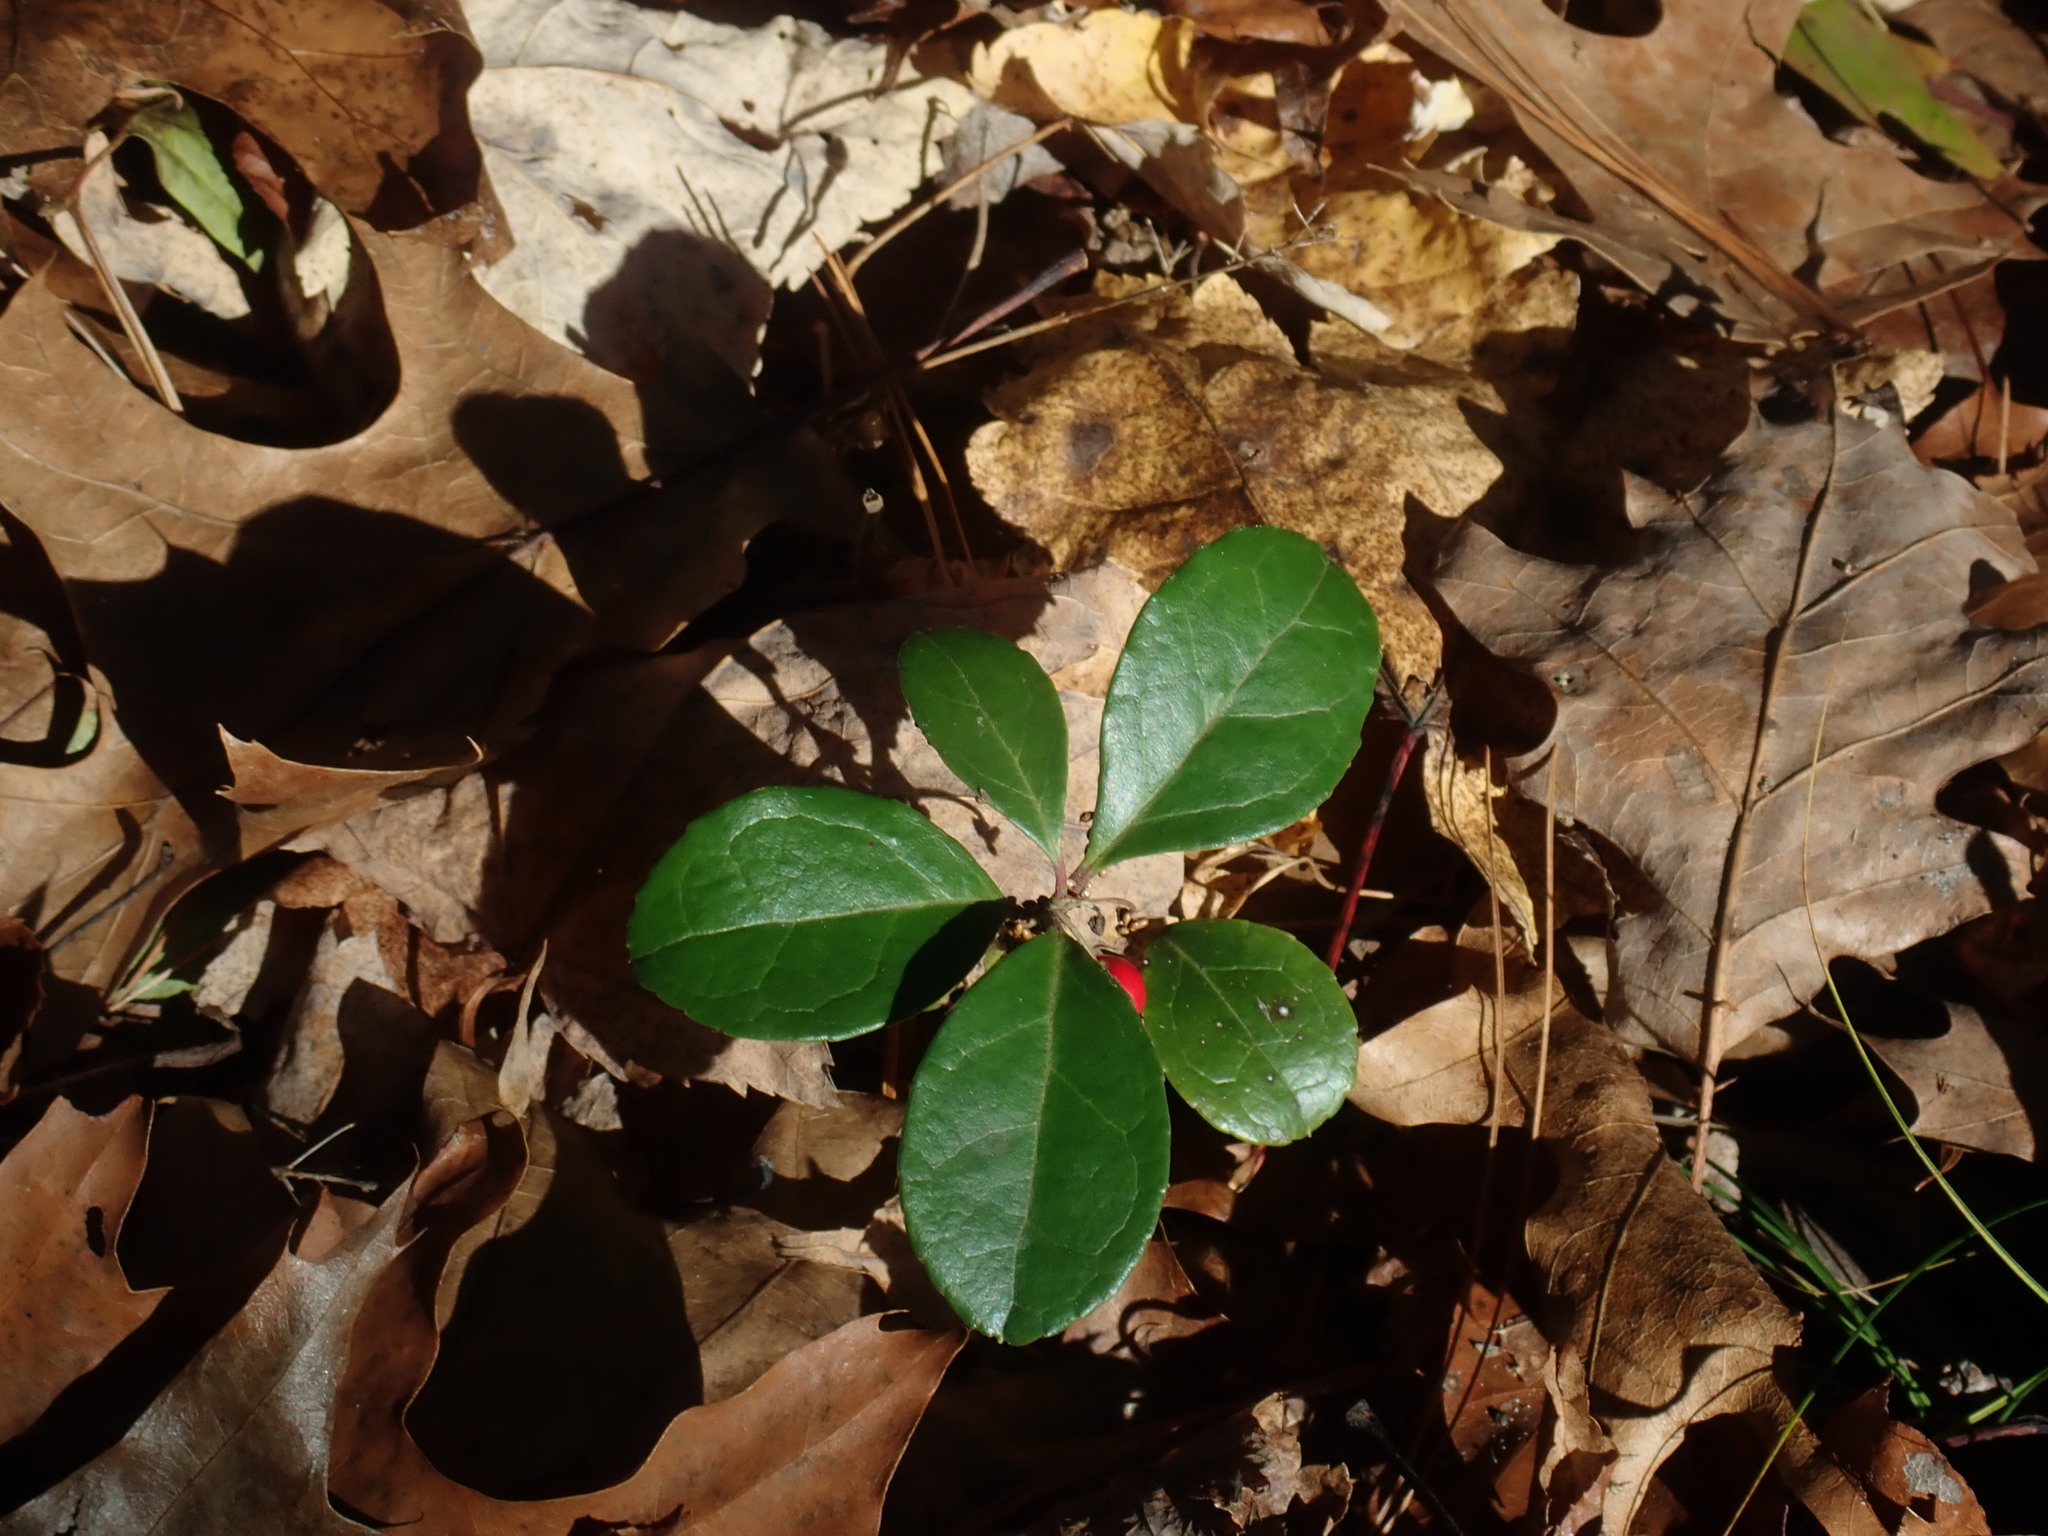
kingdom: Plantae
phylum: Tracheophyta
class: Magnoliopsida
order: Ericales
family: Ericaceae
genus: Gaultheria
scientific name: Gaultheria procumbens
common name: Checkerberry
